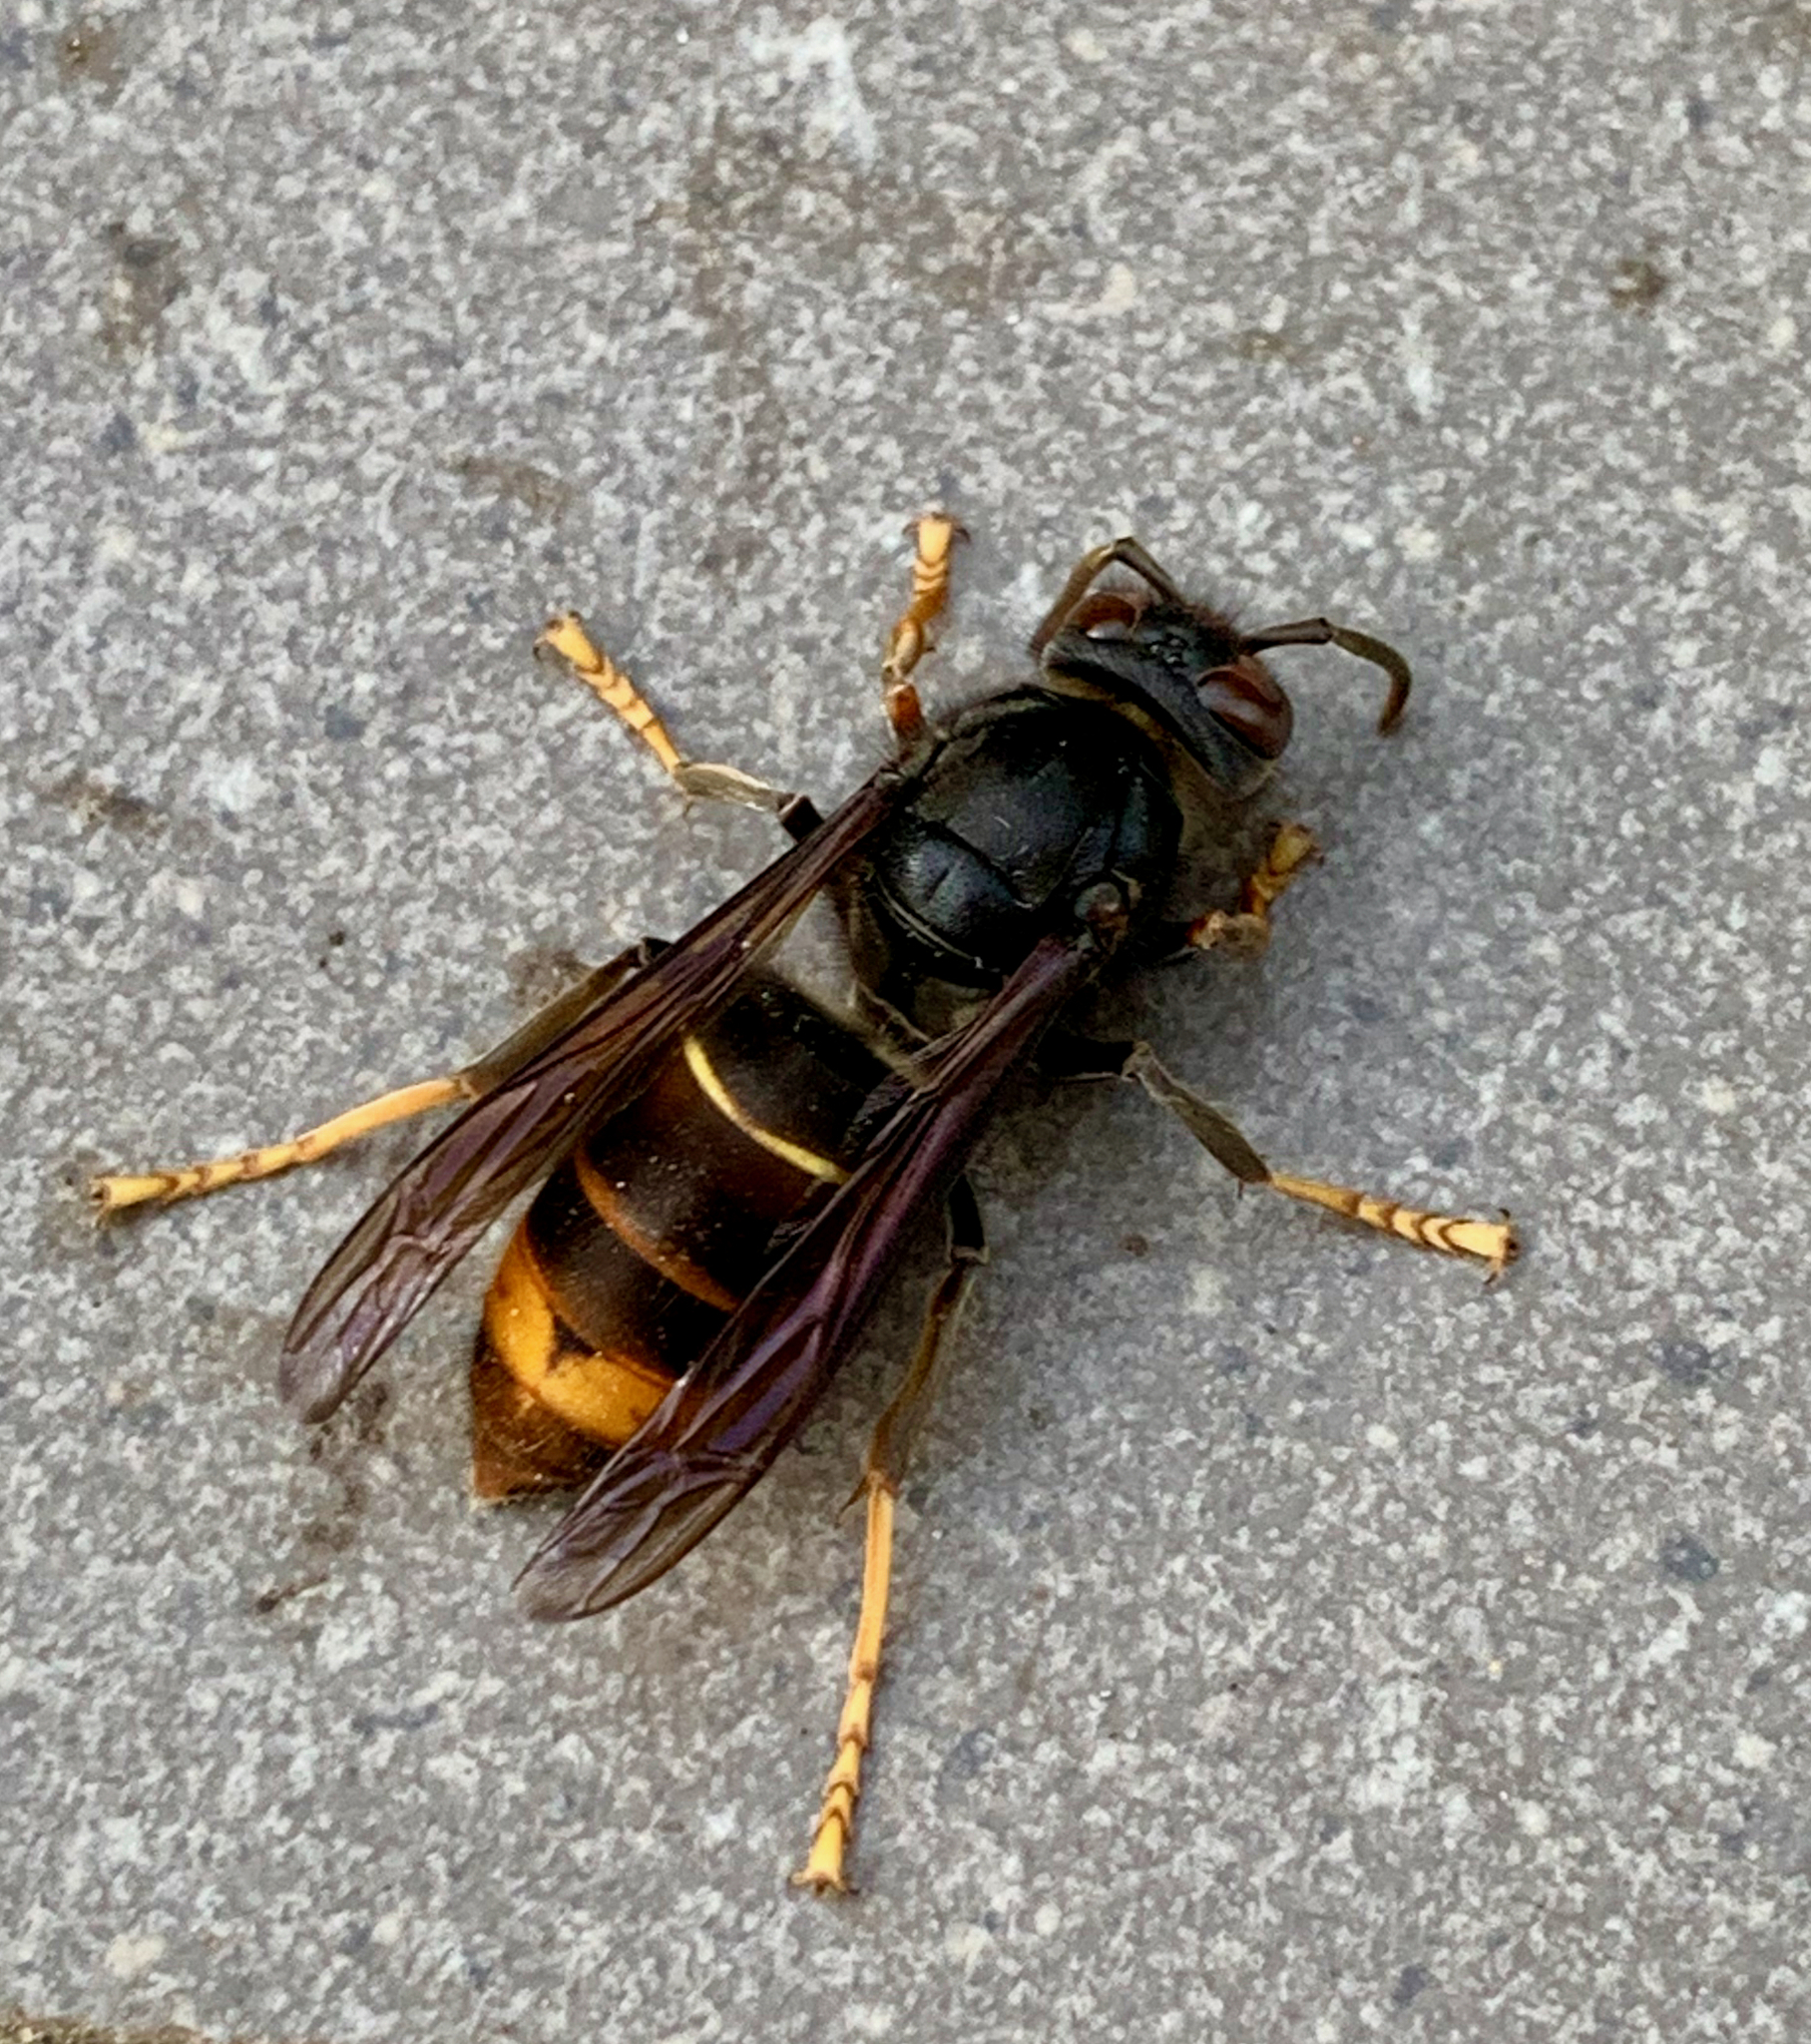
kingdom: Animalia
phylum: Arthropoda
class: Insecta
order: Hymenoptera
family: Vespidae
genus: Vespa
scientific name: Vespa velutina
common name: Asian hornet
